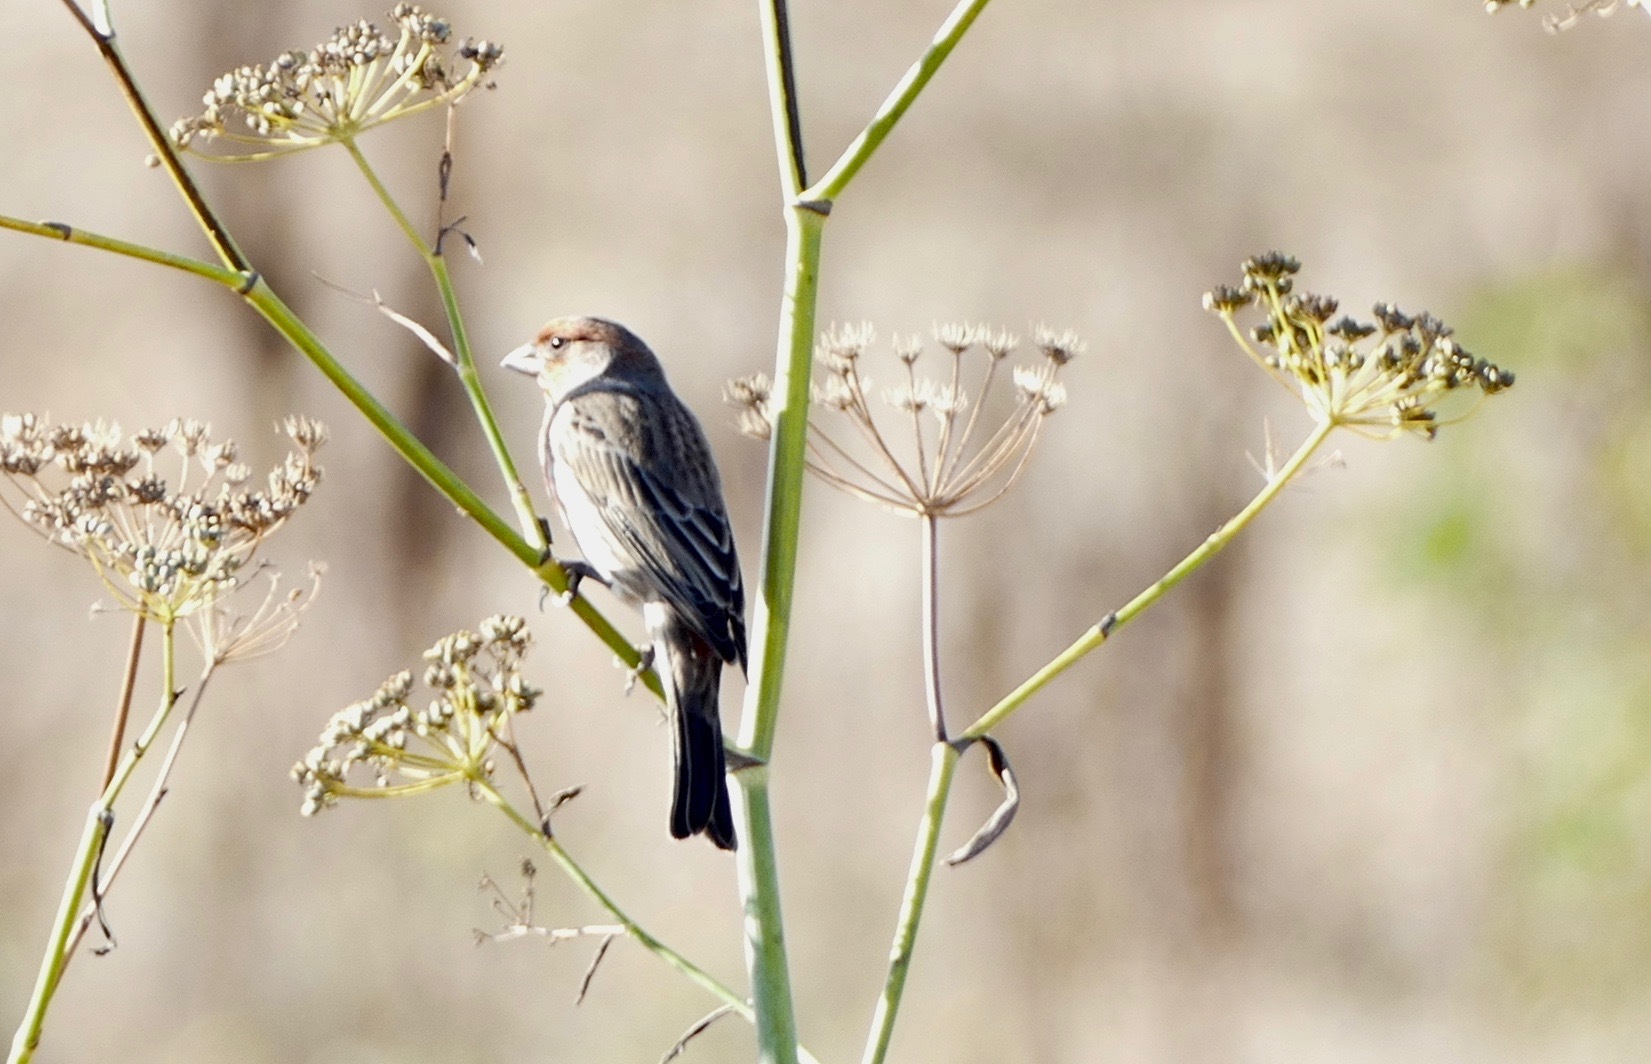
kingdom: Animalia
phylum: Chordata
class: Aves
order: Passeriformes
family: Fringillidae
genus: Haemorhous
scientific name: Haemorhous mexicanus
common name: House finch
